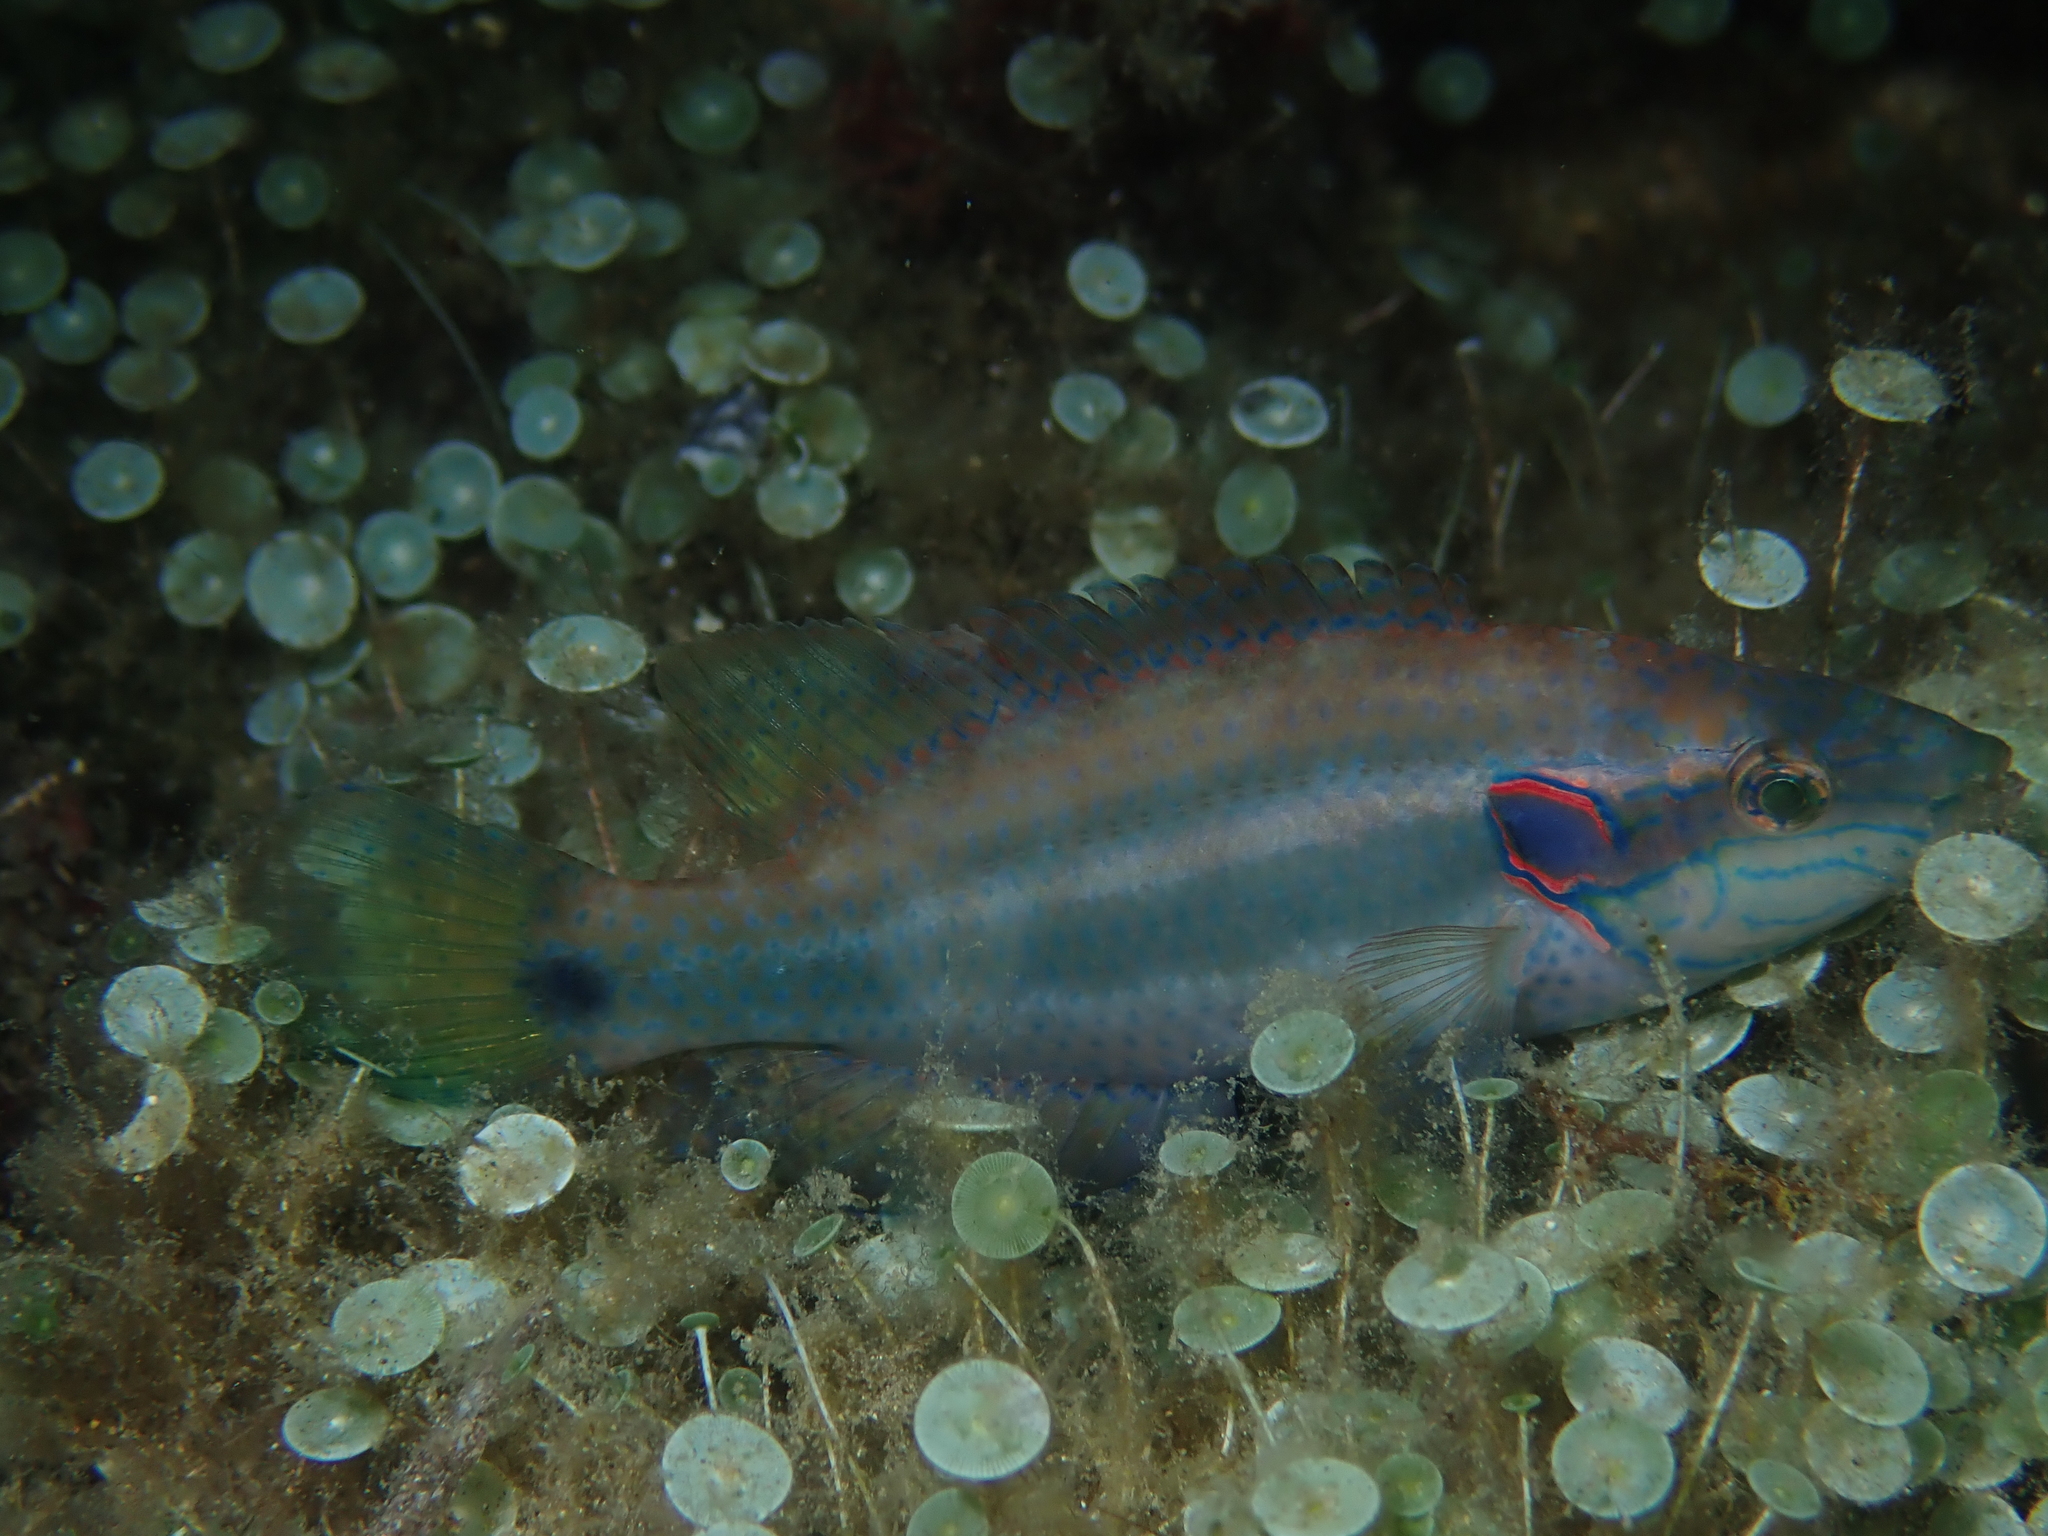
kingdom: Animalia
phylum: Chordata
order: Perciformes
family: Labridae
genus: Symphodus
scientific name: Symphodus ocellatus
